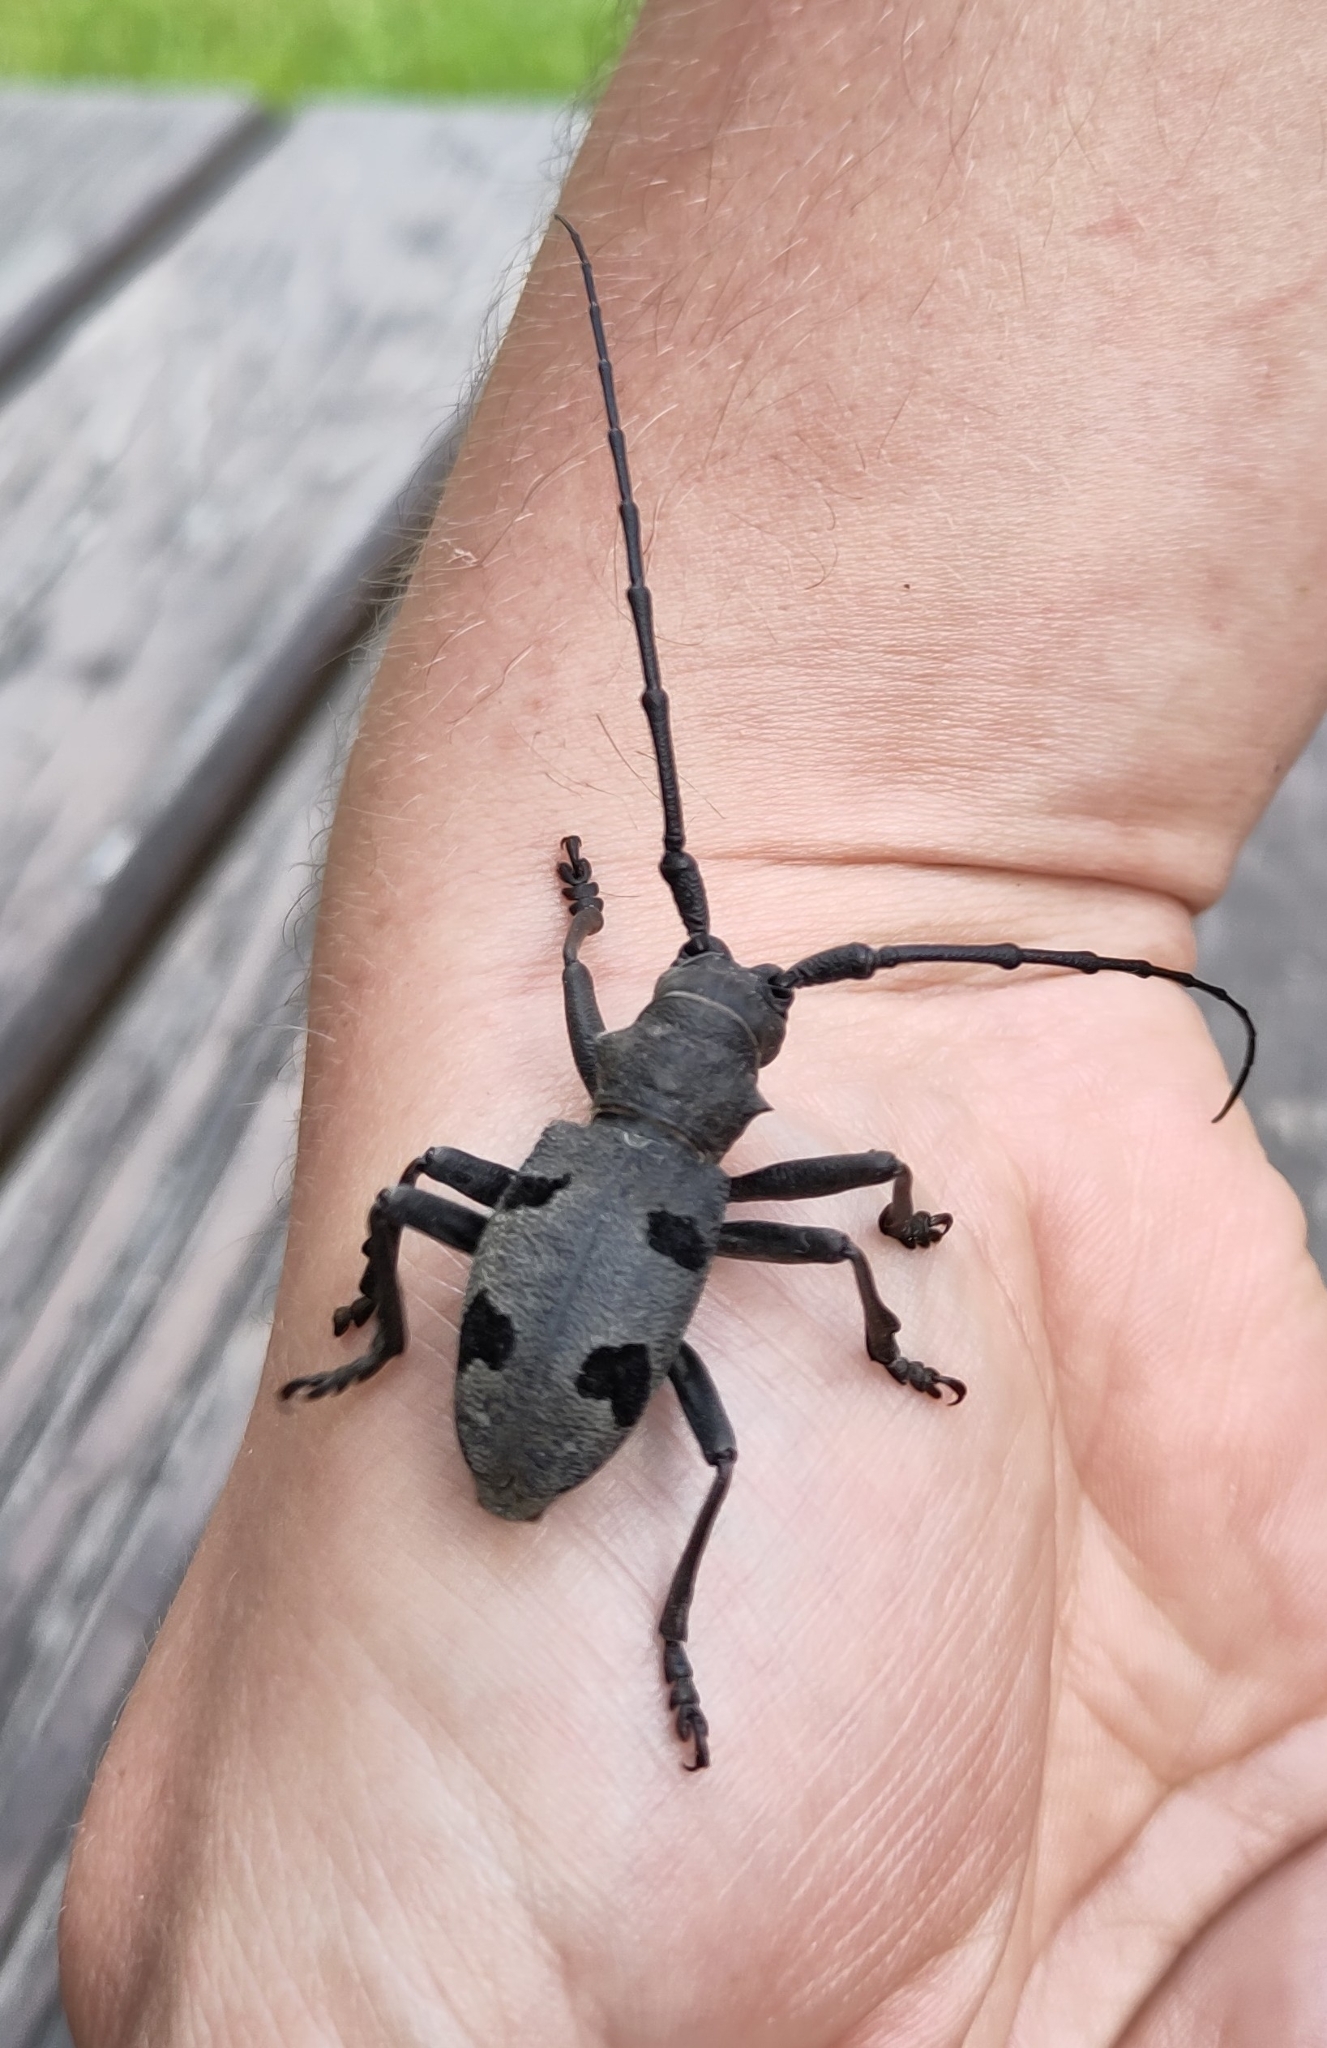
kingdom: Animalia
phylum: Arthropoda
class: Insecta
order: Coleoptera
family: Cerambycidae
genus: Morimus
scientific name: Morimus asper
